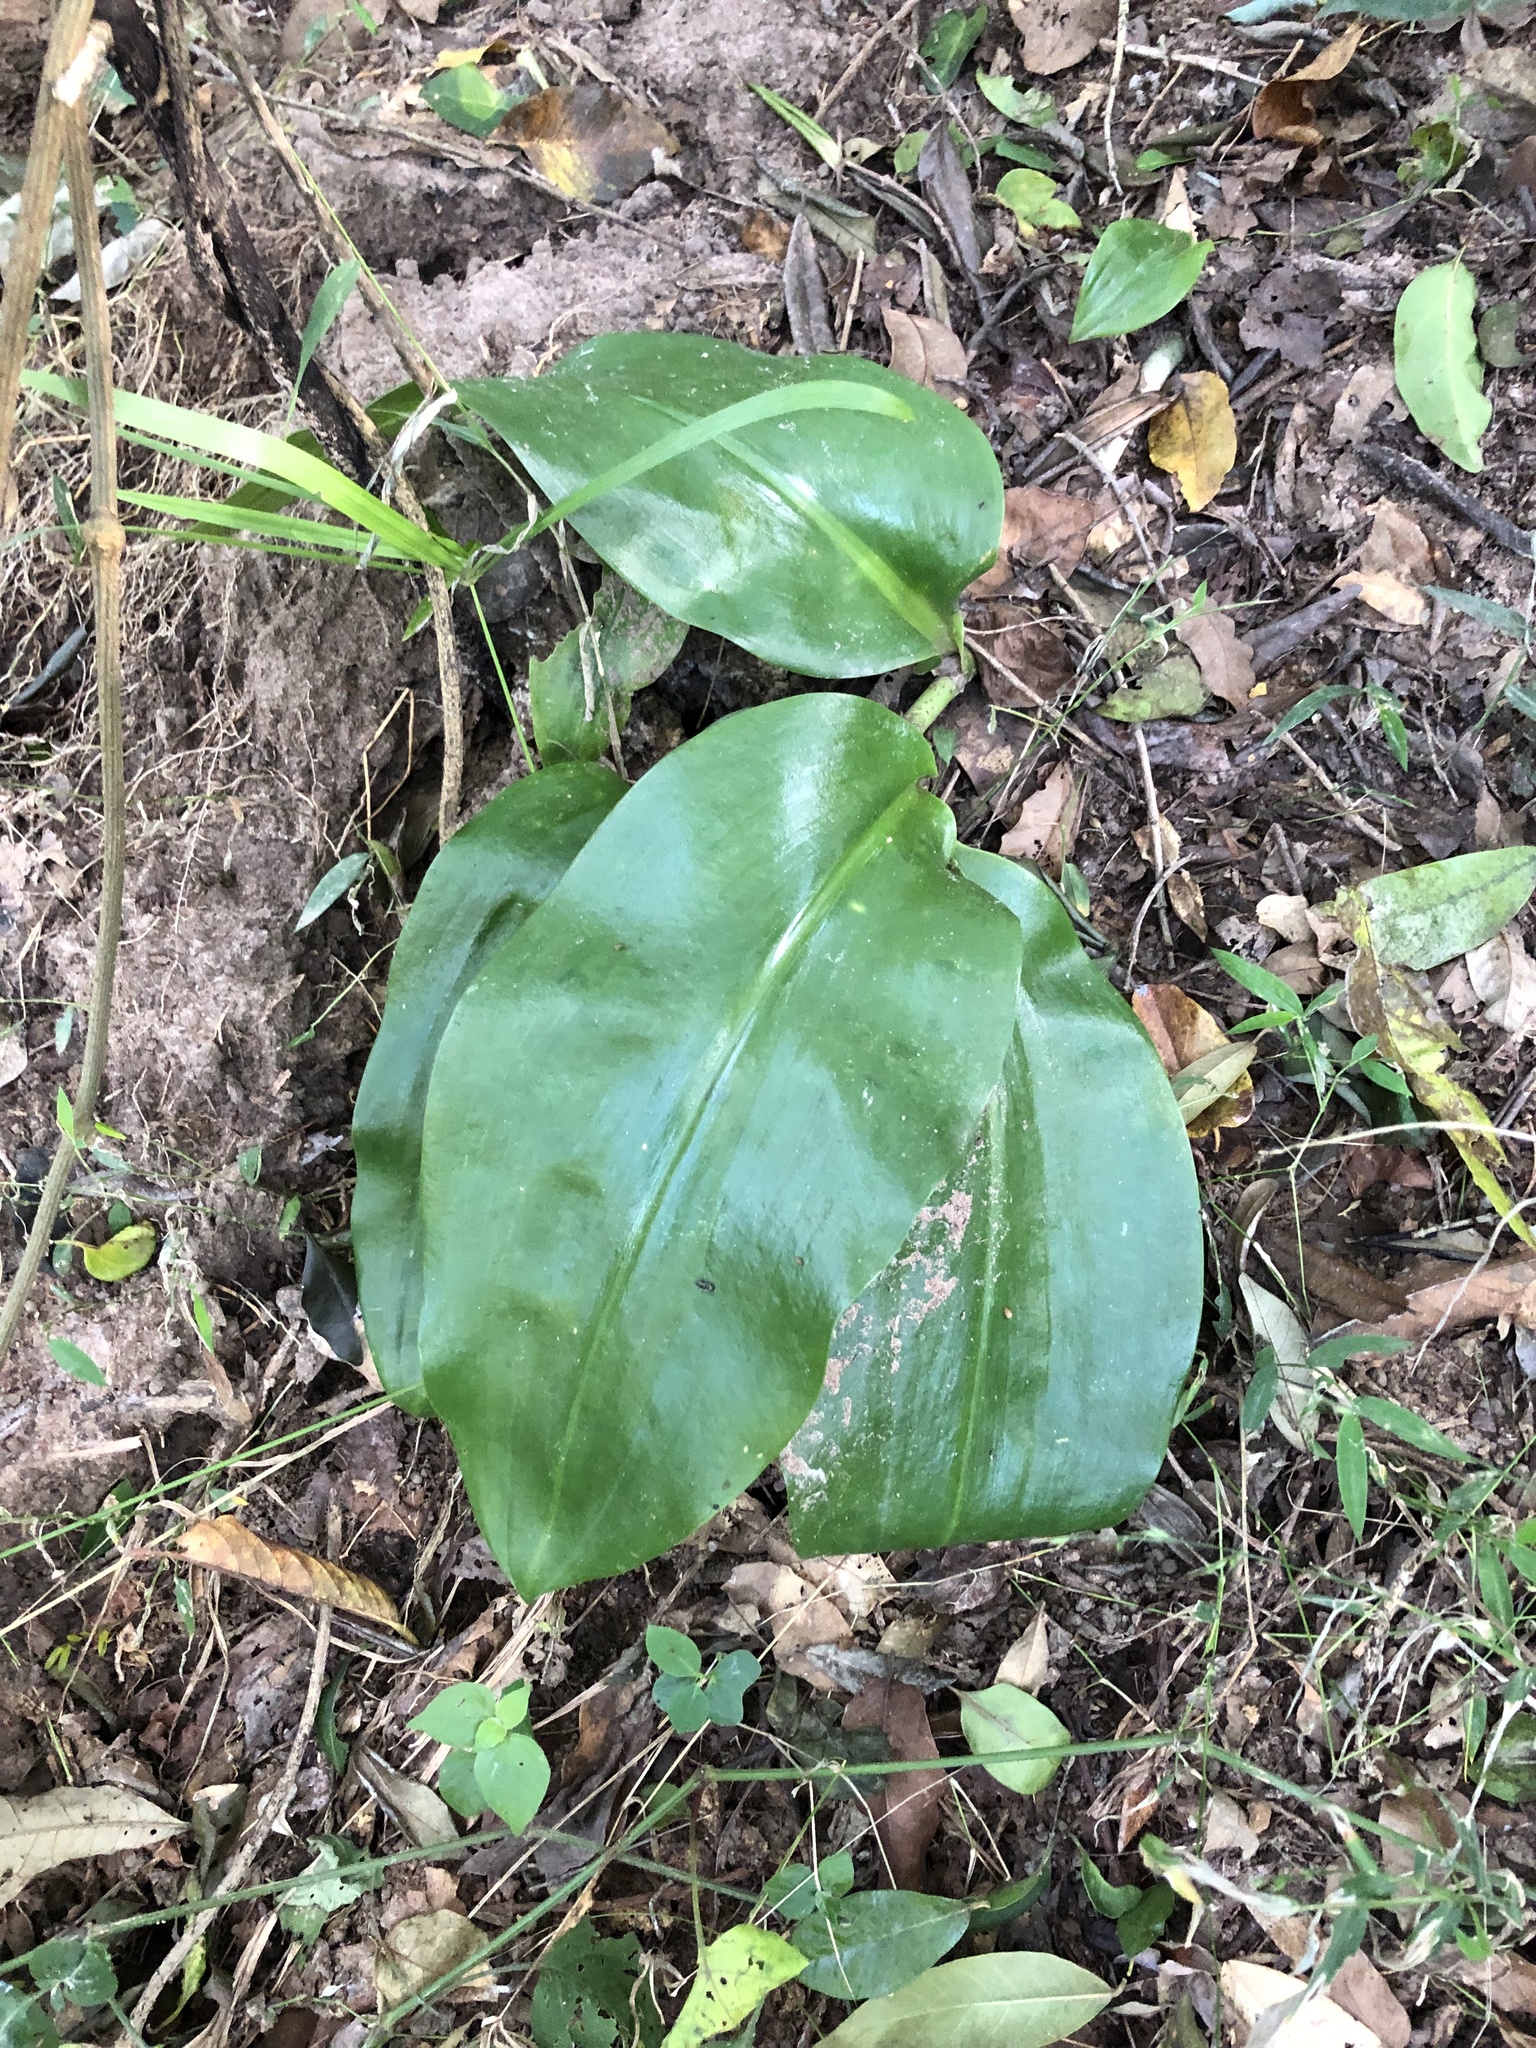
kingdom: Plantae
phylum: Tracheophyta
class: Liliopsida
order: Asparagales
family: Amaryllidaceae
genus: Scadoxus
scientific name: Scadoxus puniceus
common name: Royal-paintbrush
